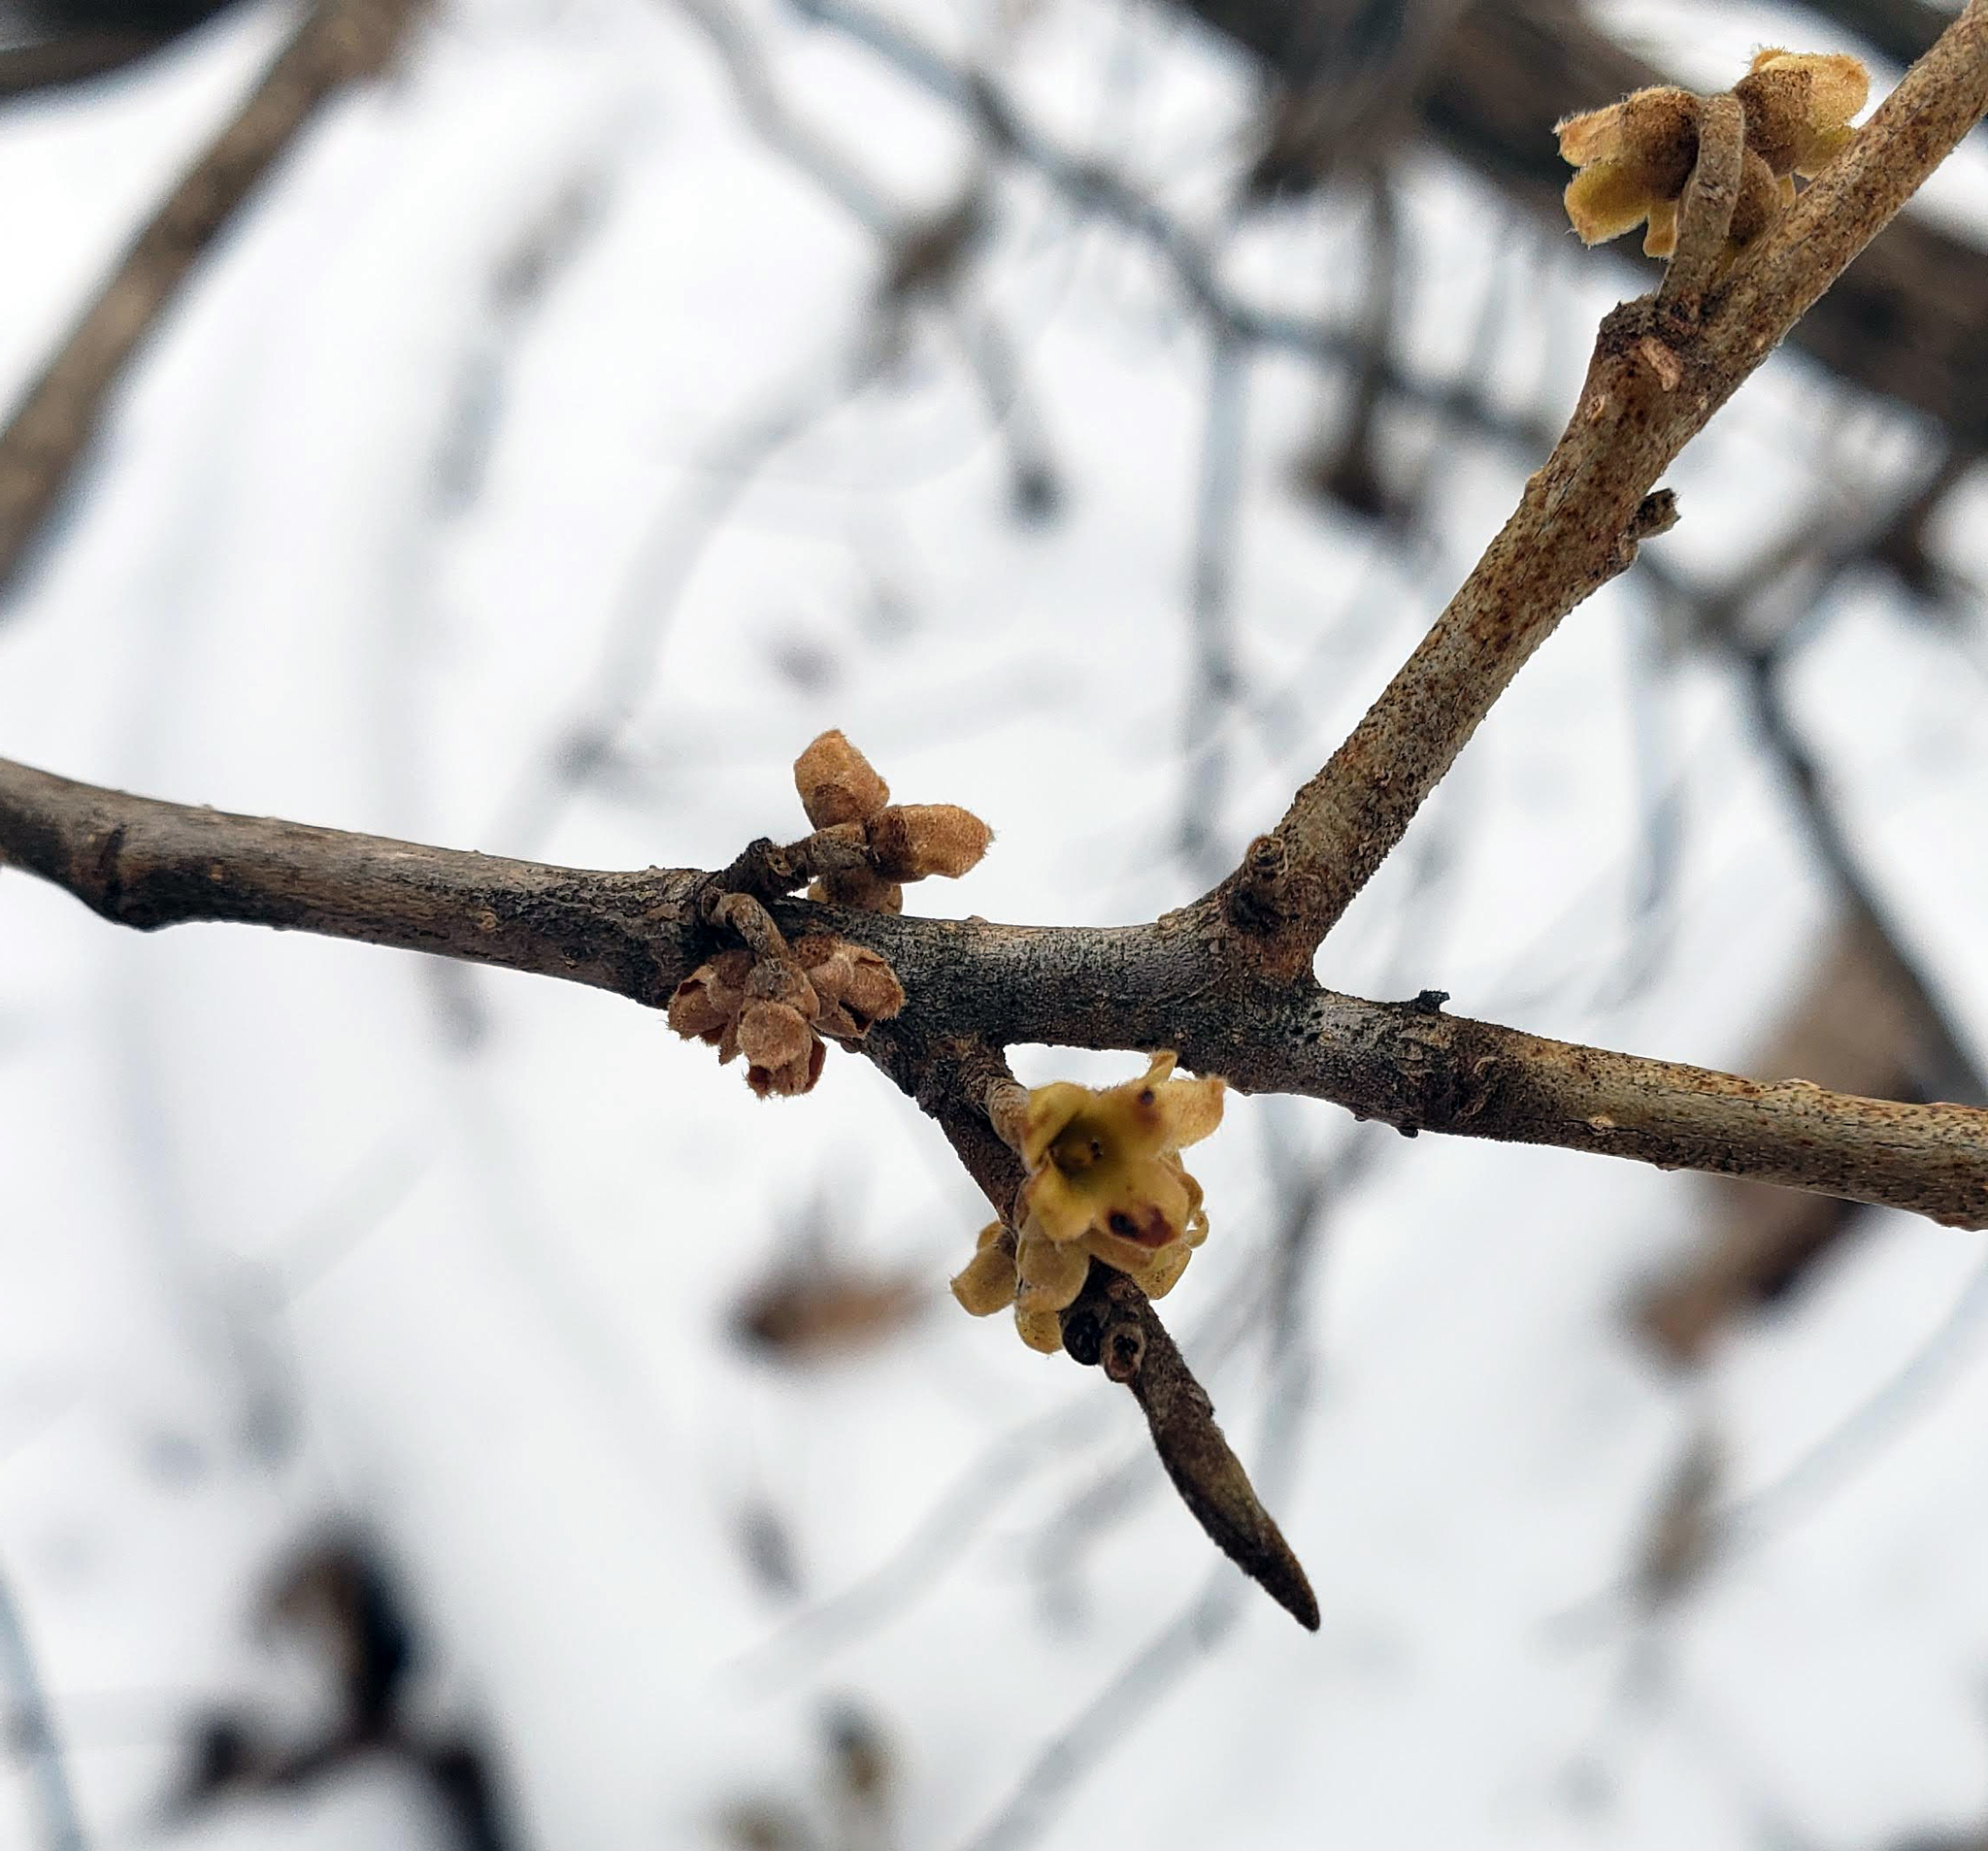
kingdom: Plantae
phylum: Tracheophyta
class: Magnoliopsida
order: Saxifragales
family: Hamamelidaceae
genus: Hamamelis
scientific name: Hamamelis virginiana
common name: Witch-hazel
